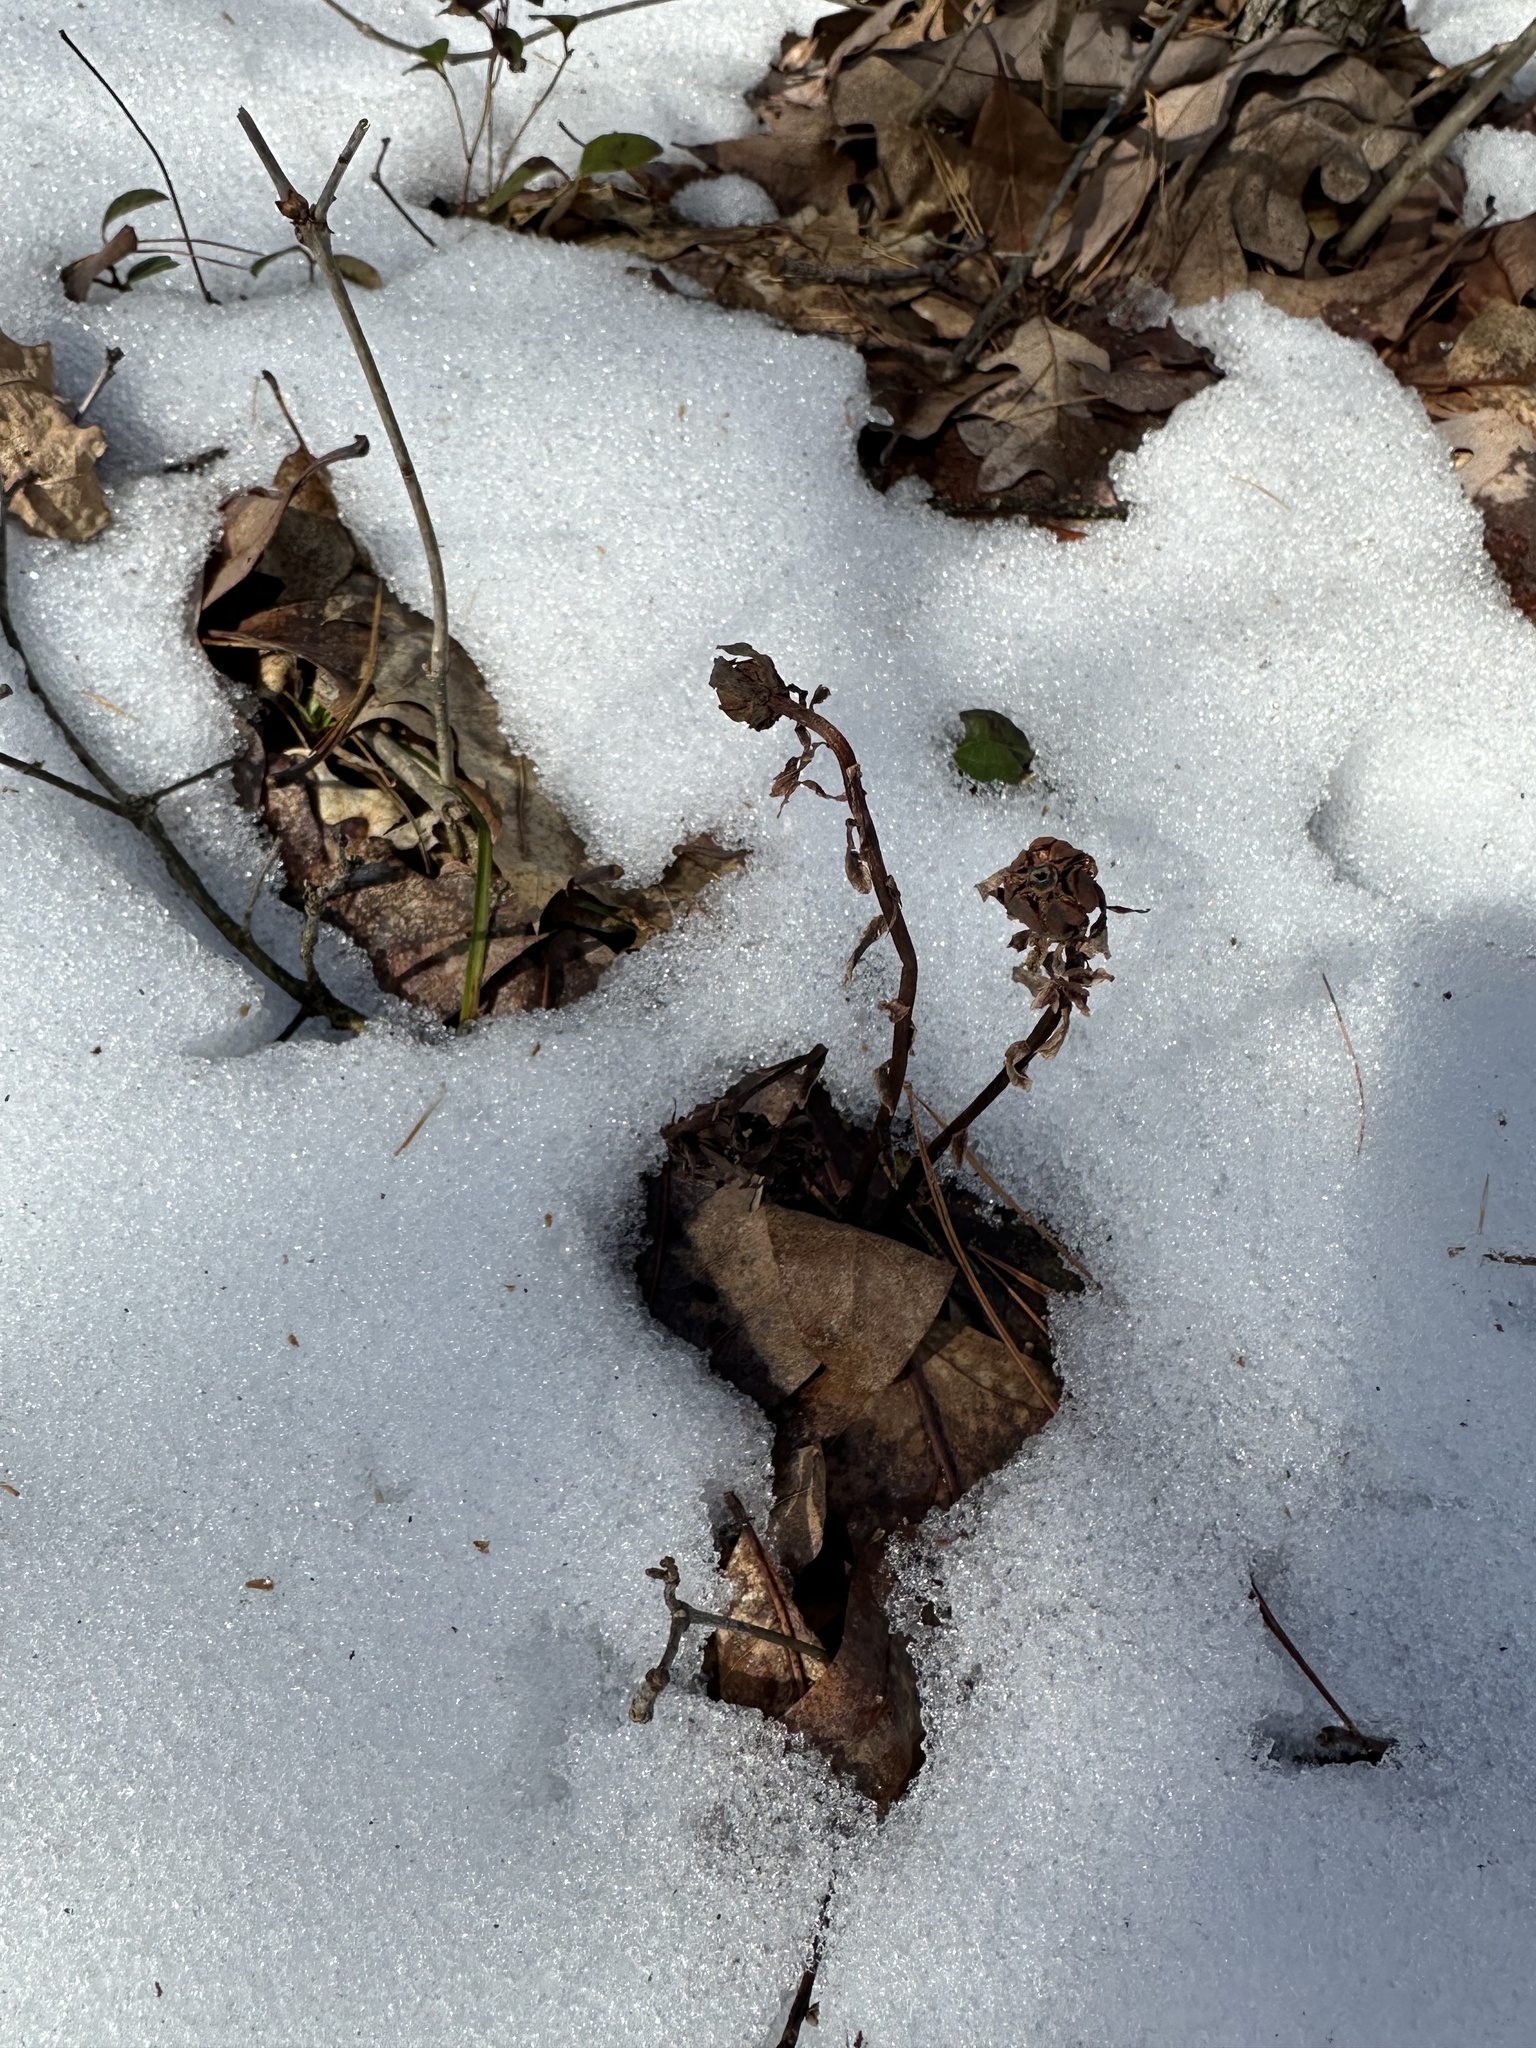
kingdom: Plantae
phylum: Tracheophyta
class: Magnoliopsida
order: Ericales
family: Ericaceae
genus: Monotropa
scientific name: Monotropa uniflora
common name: Convulsion root
